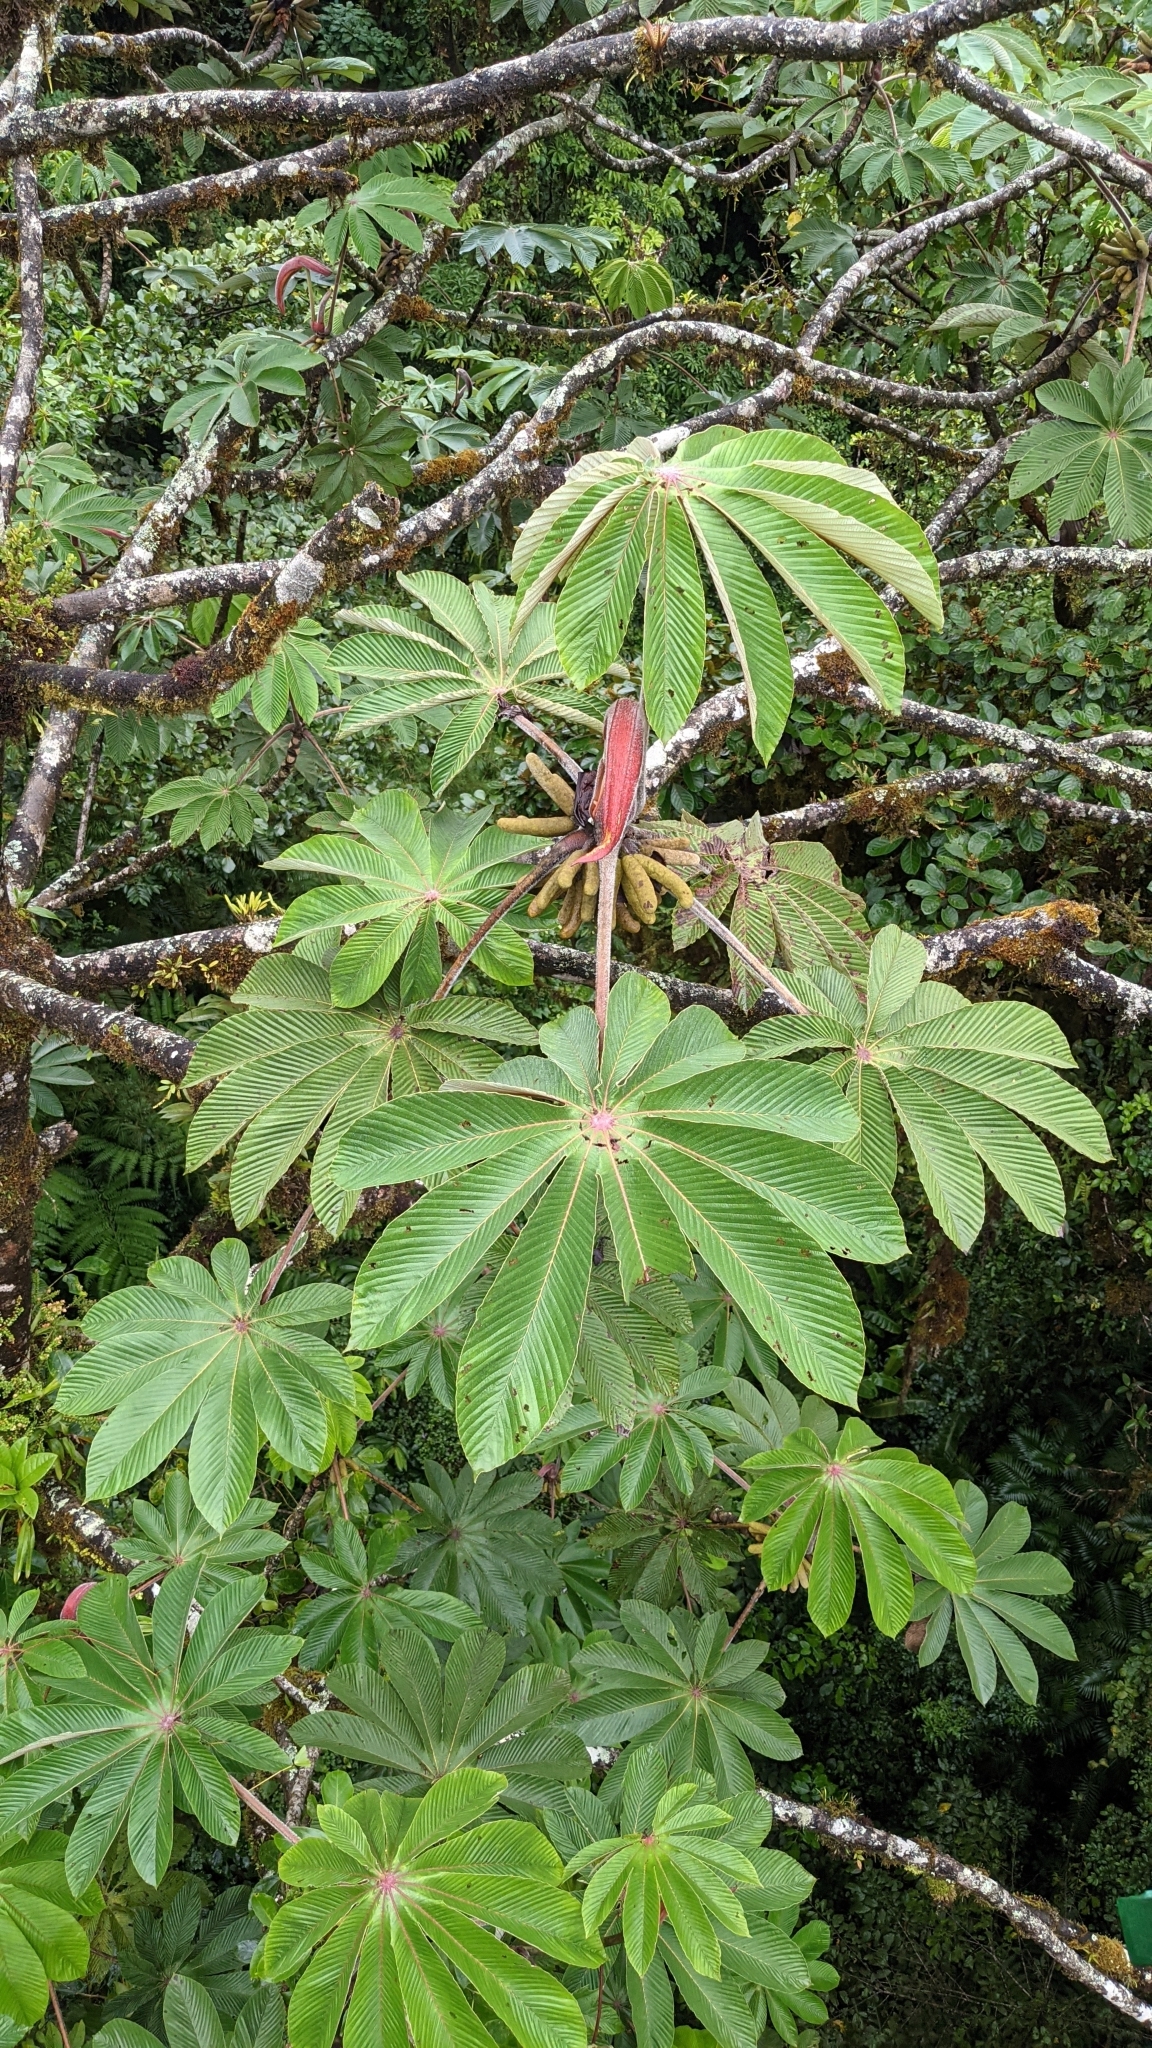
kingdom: Plantae
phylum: Tracheophyta
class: Magnoliopsida
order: Rosales
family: Urticaceae
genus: Cecropia
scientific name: Cecropia angustifolia
